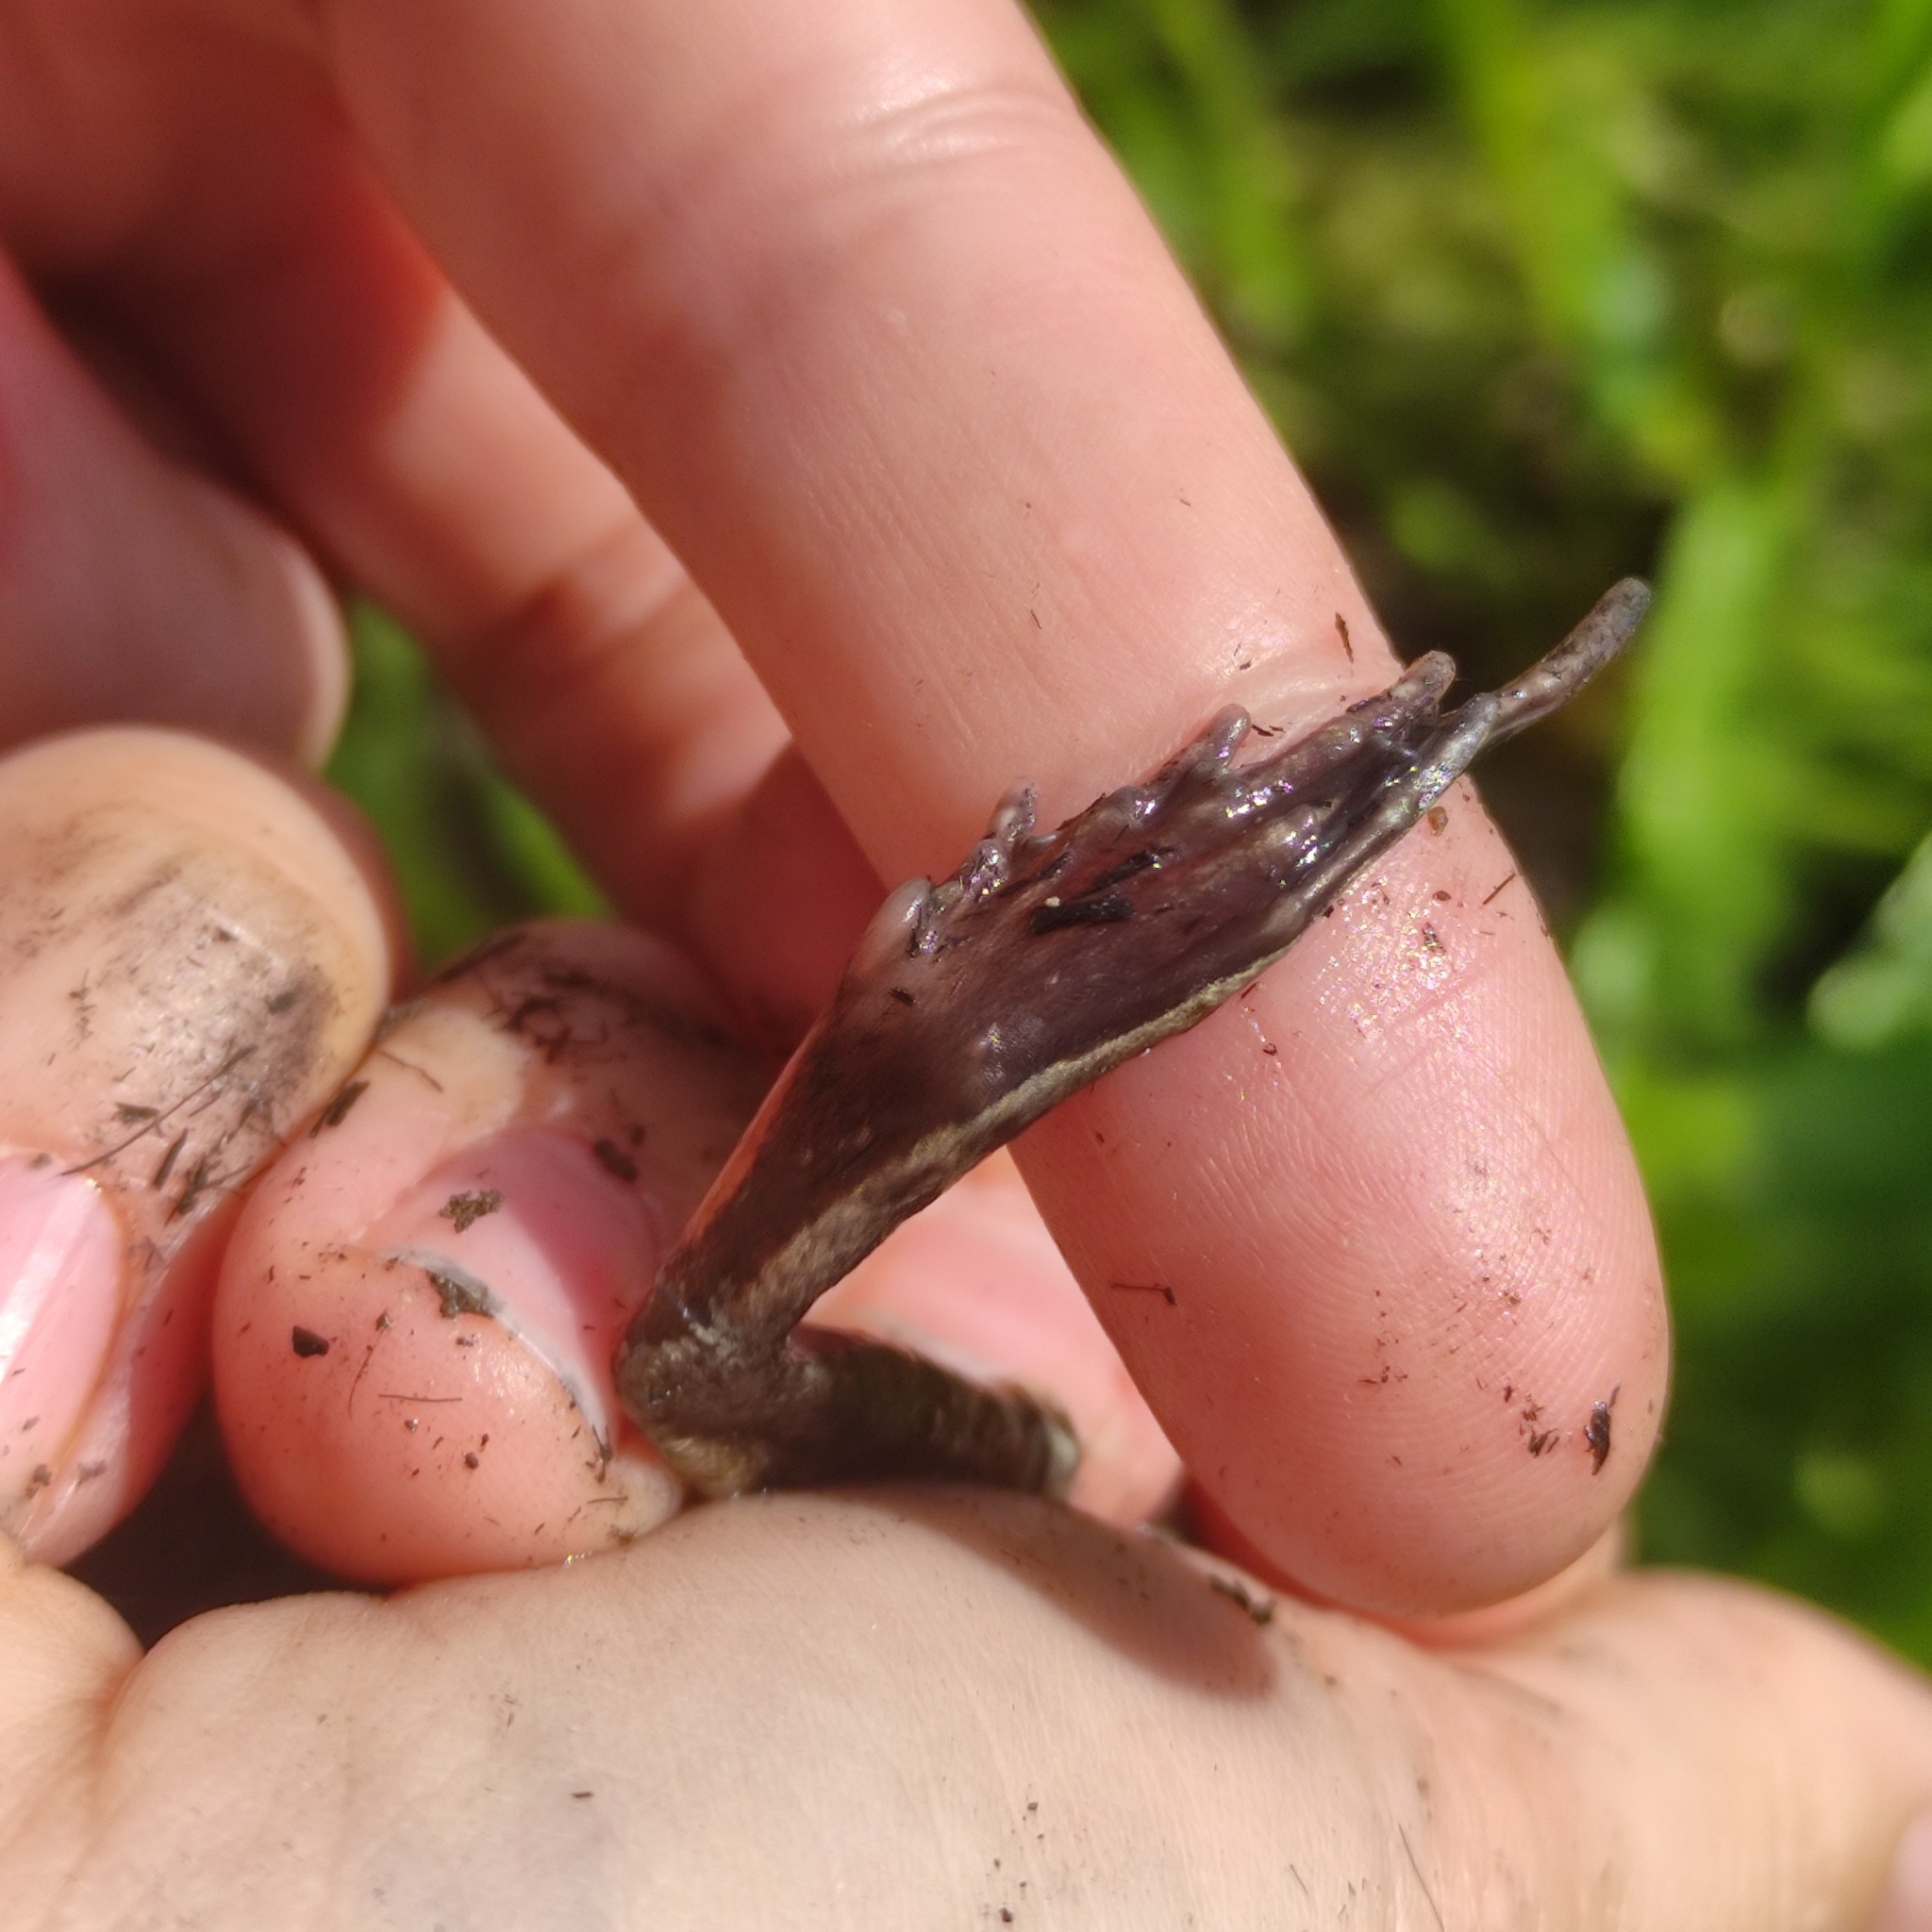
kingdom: Animalia
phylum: Chordata
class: Amphibia
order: Anura
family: Ranidae
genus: Rana
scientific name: Rana arvalis
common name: Moor frog
